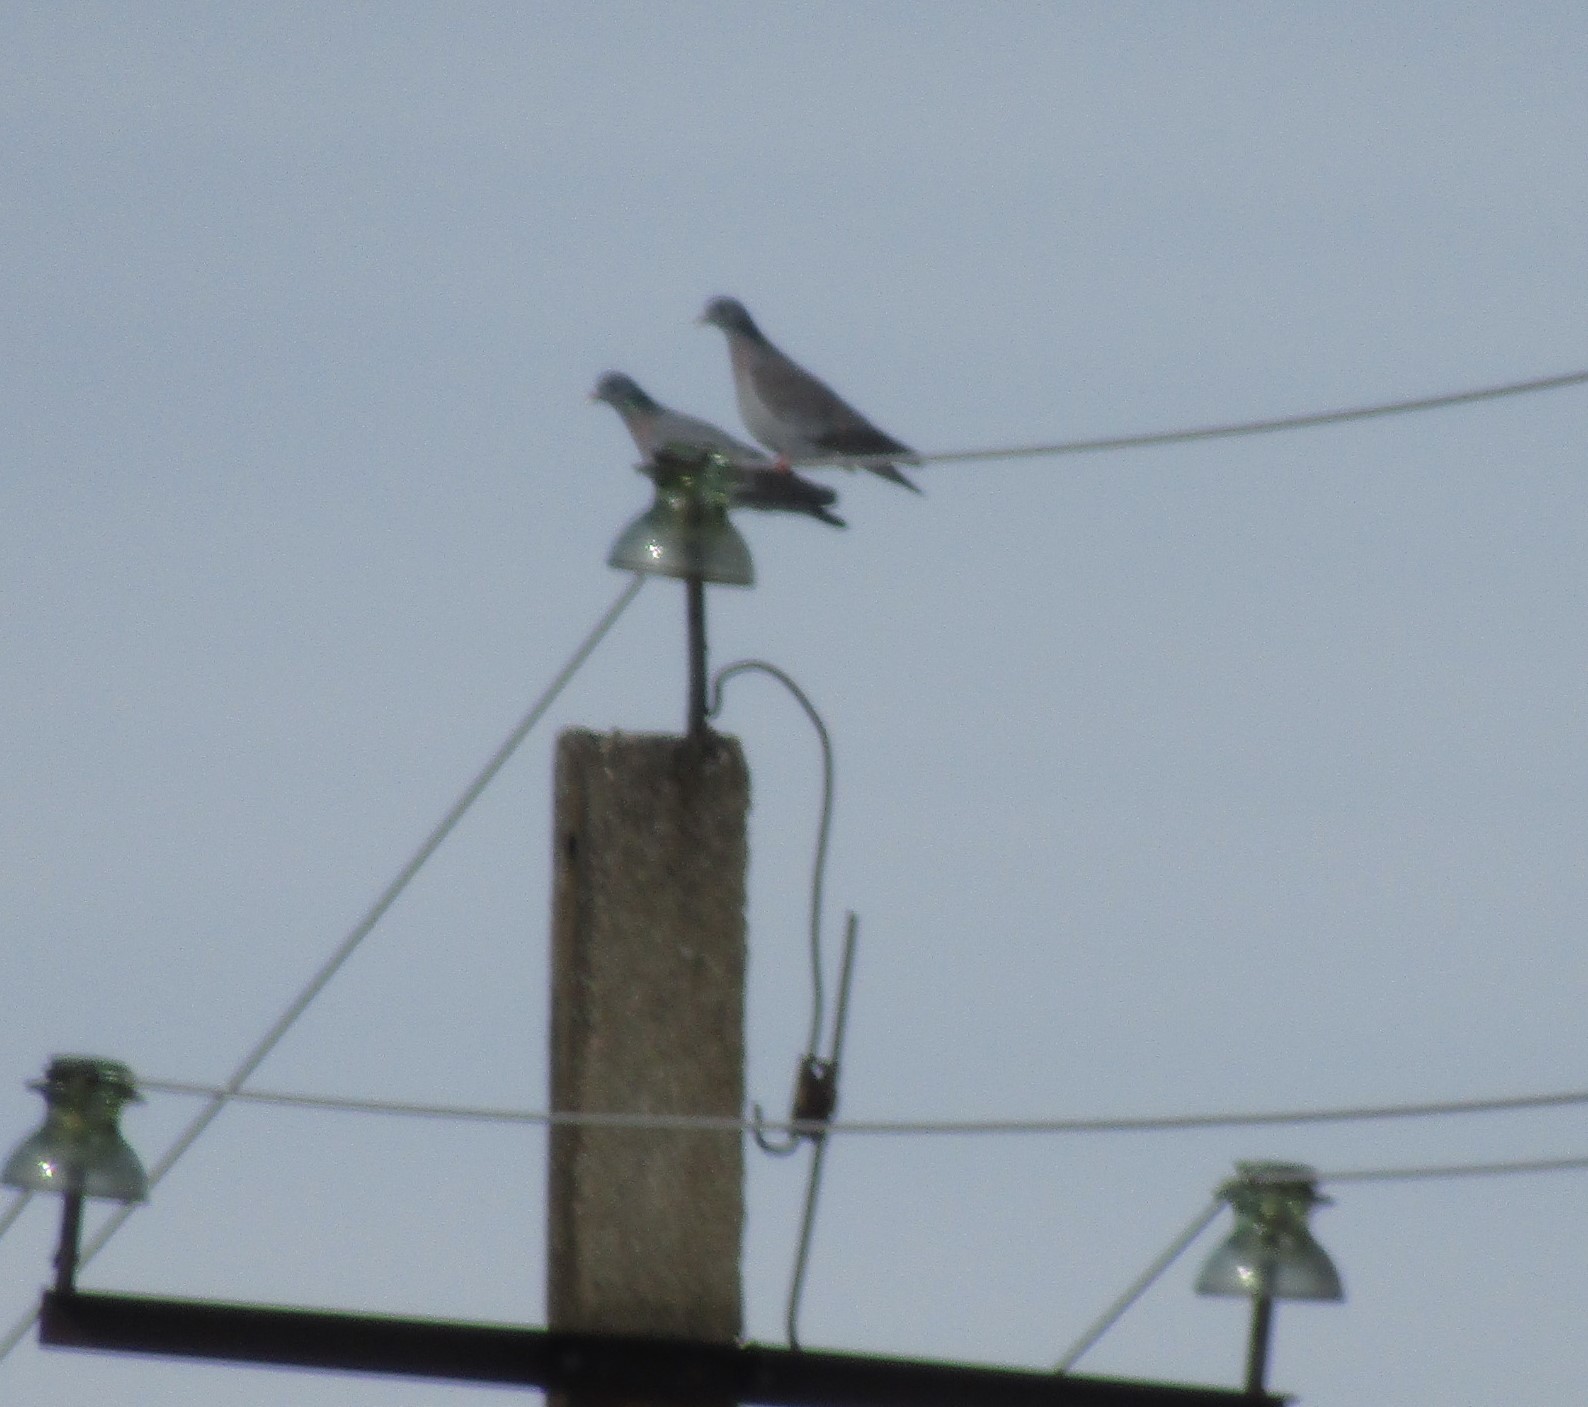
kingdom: Animalia
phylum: Chordata
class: Aves
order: Columbiformes
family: Columbidae
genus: Columba
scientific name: Columba oenas
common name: Stock dove
